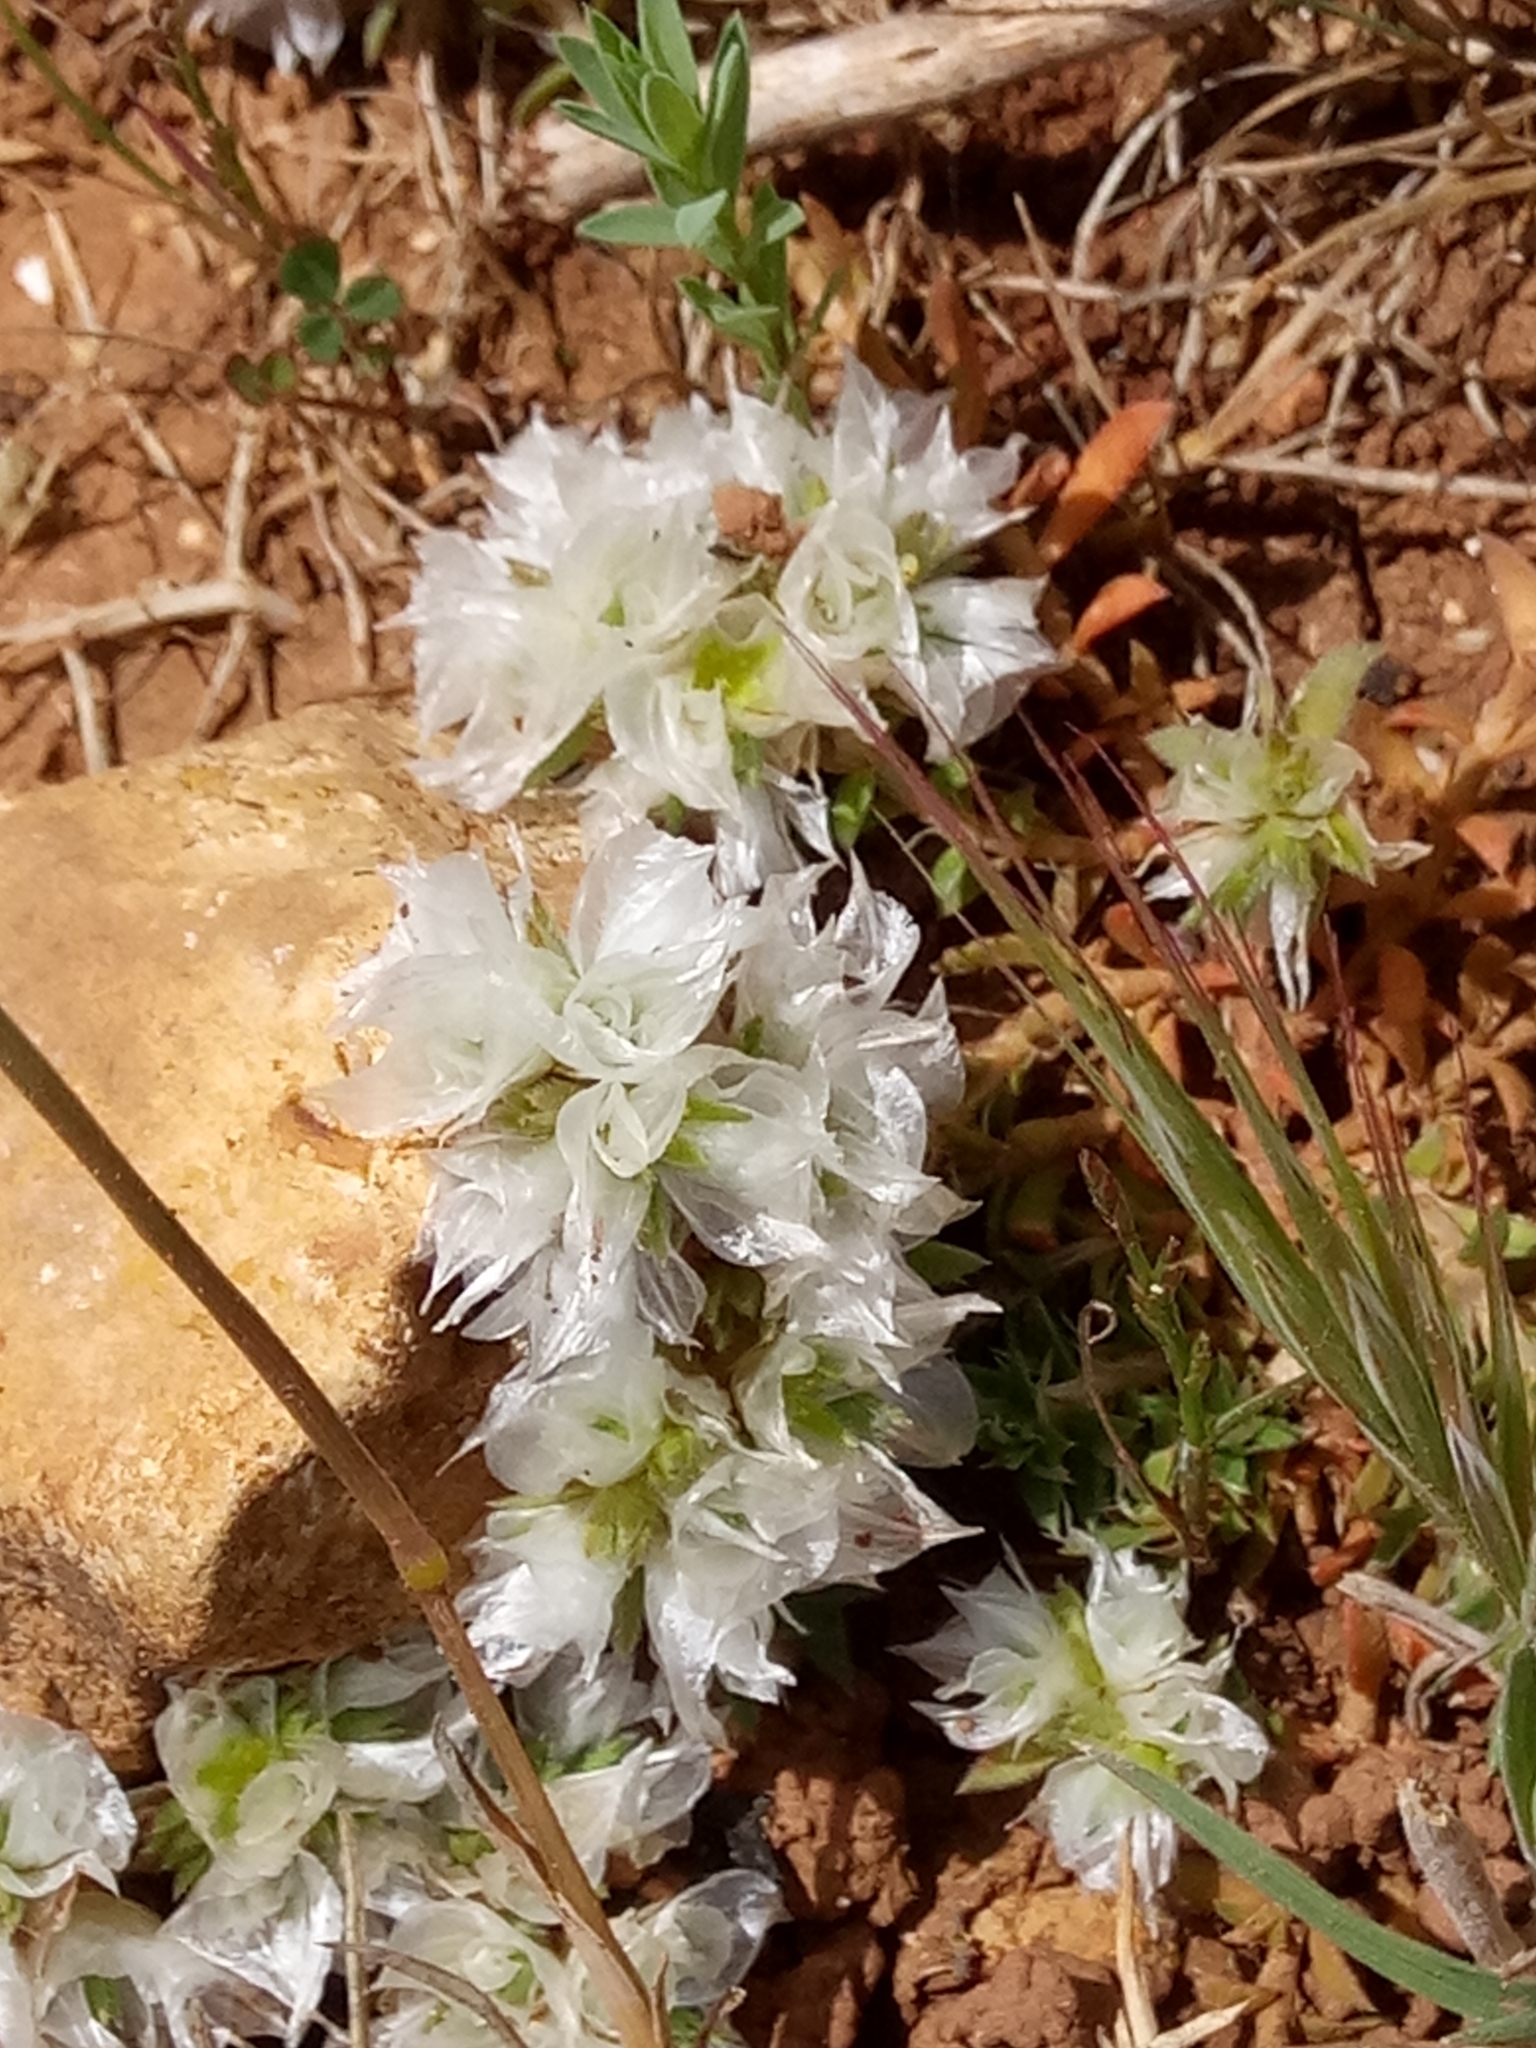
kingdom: Plantae
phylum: Tracheophyta
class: Magnoliopsida
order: Caryophyllales
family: Caryophyllaceae
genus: Paronychia
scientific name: Paronychia argentea
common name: Silver nailroot
